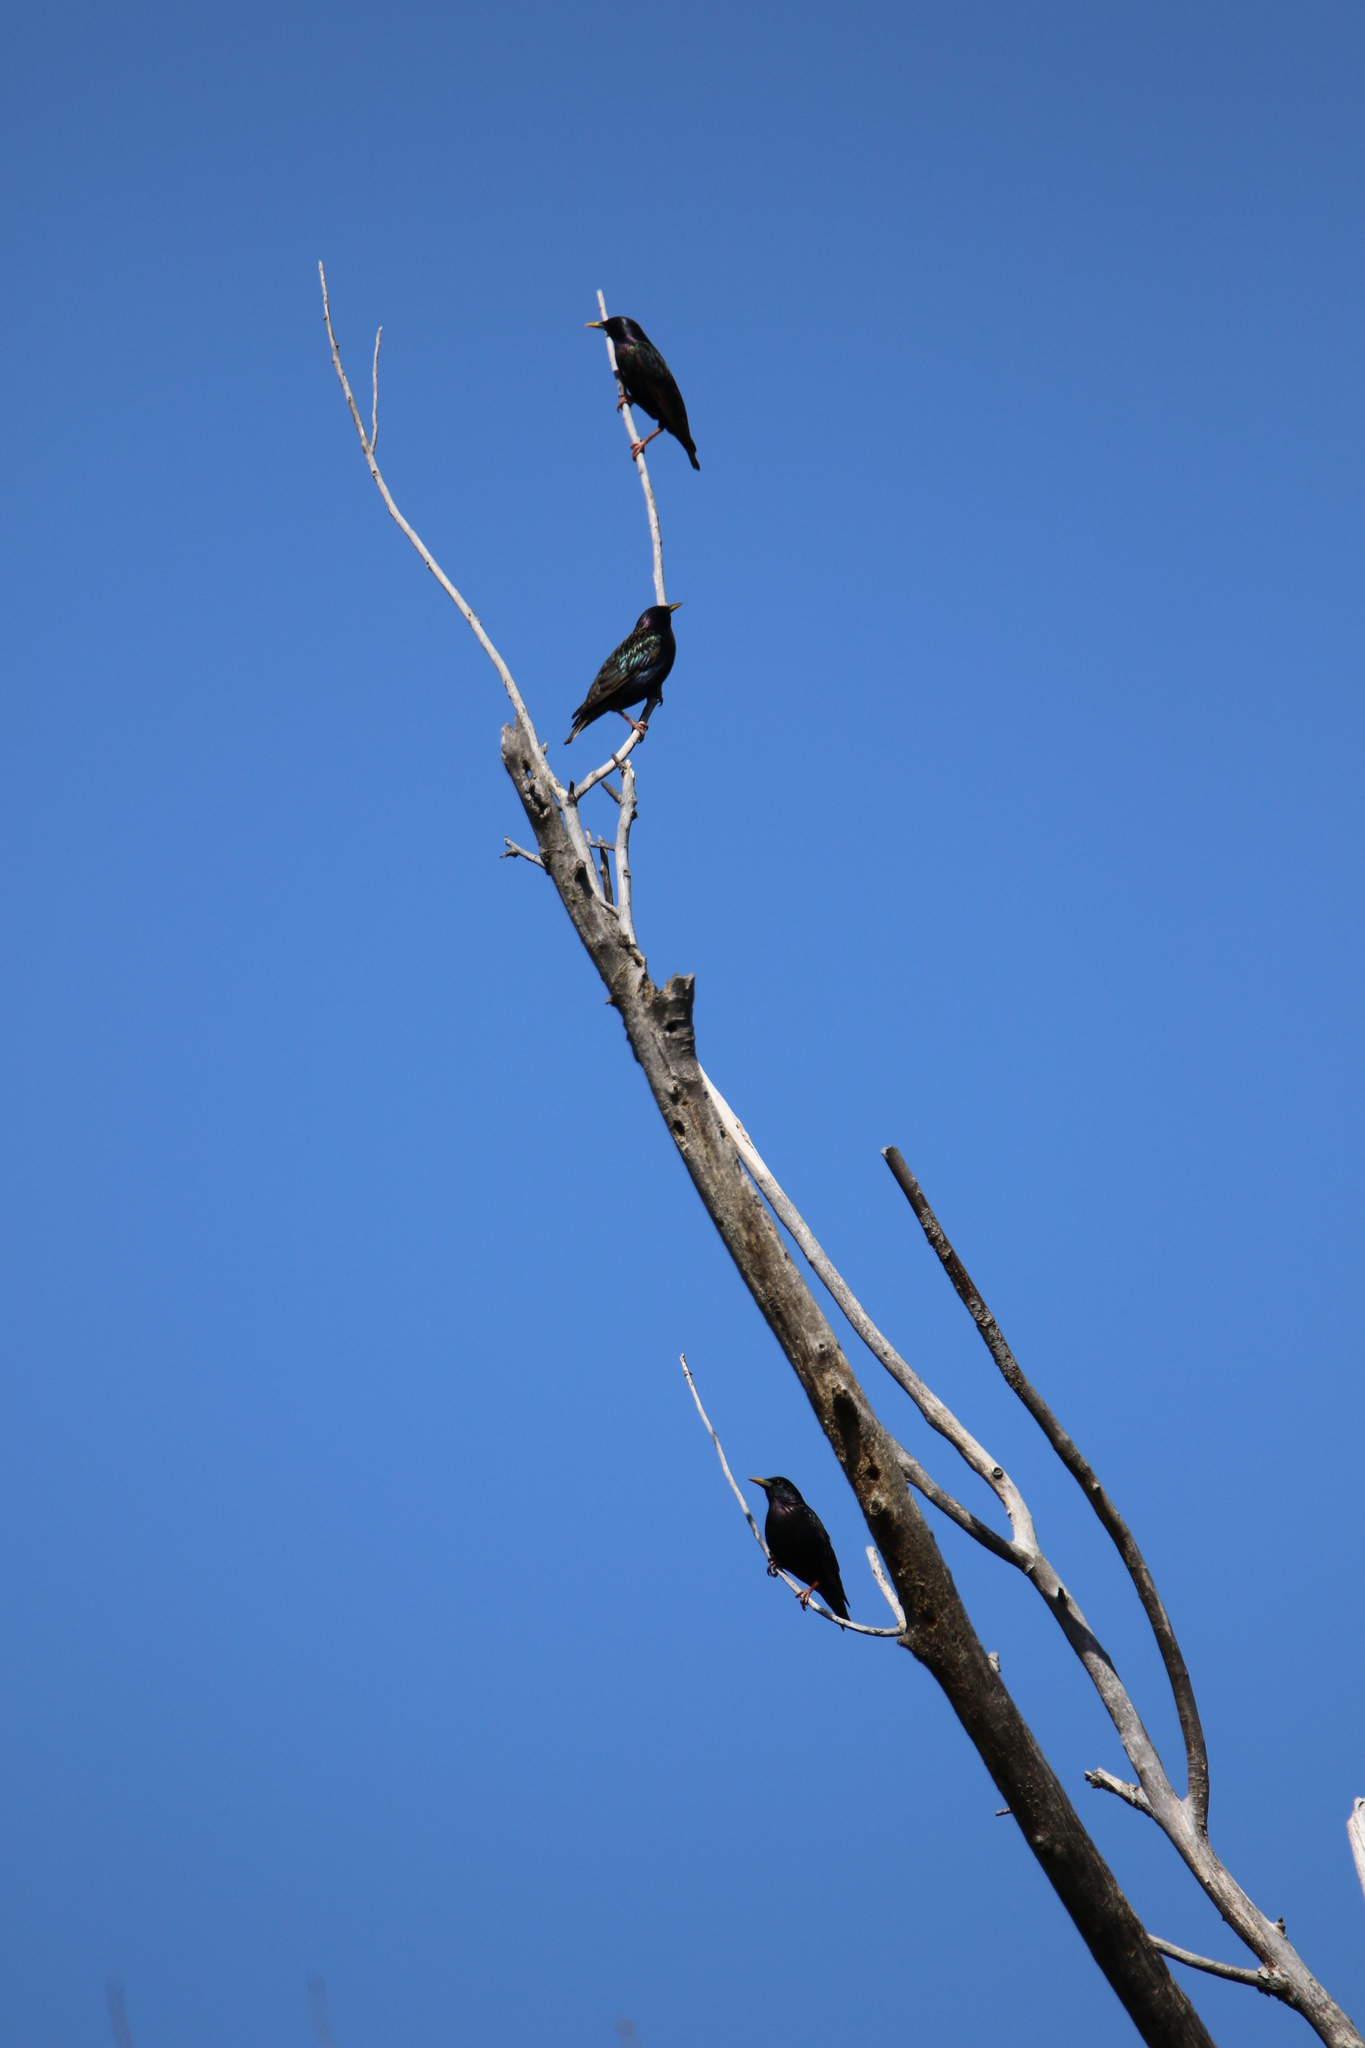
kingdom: Animalia
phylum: Chordata
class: Aves
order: Passeriformes
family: Sturnidae
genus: Sturnus
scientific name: Sturnus vulgaris
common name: Common starling
